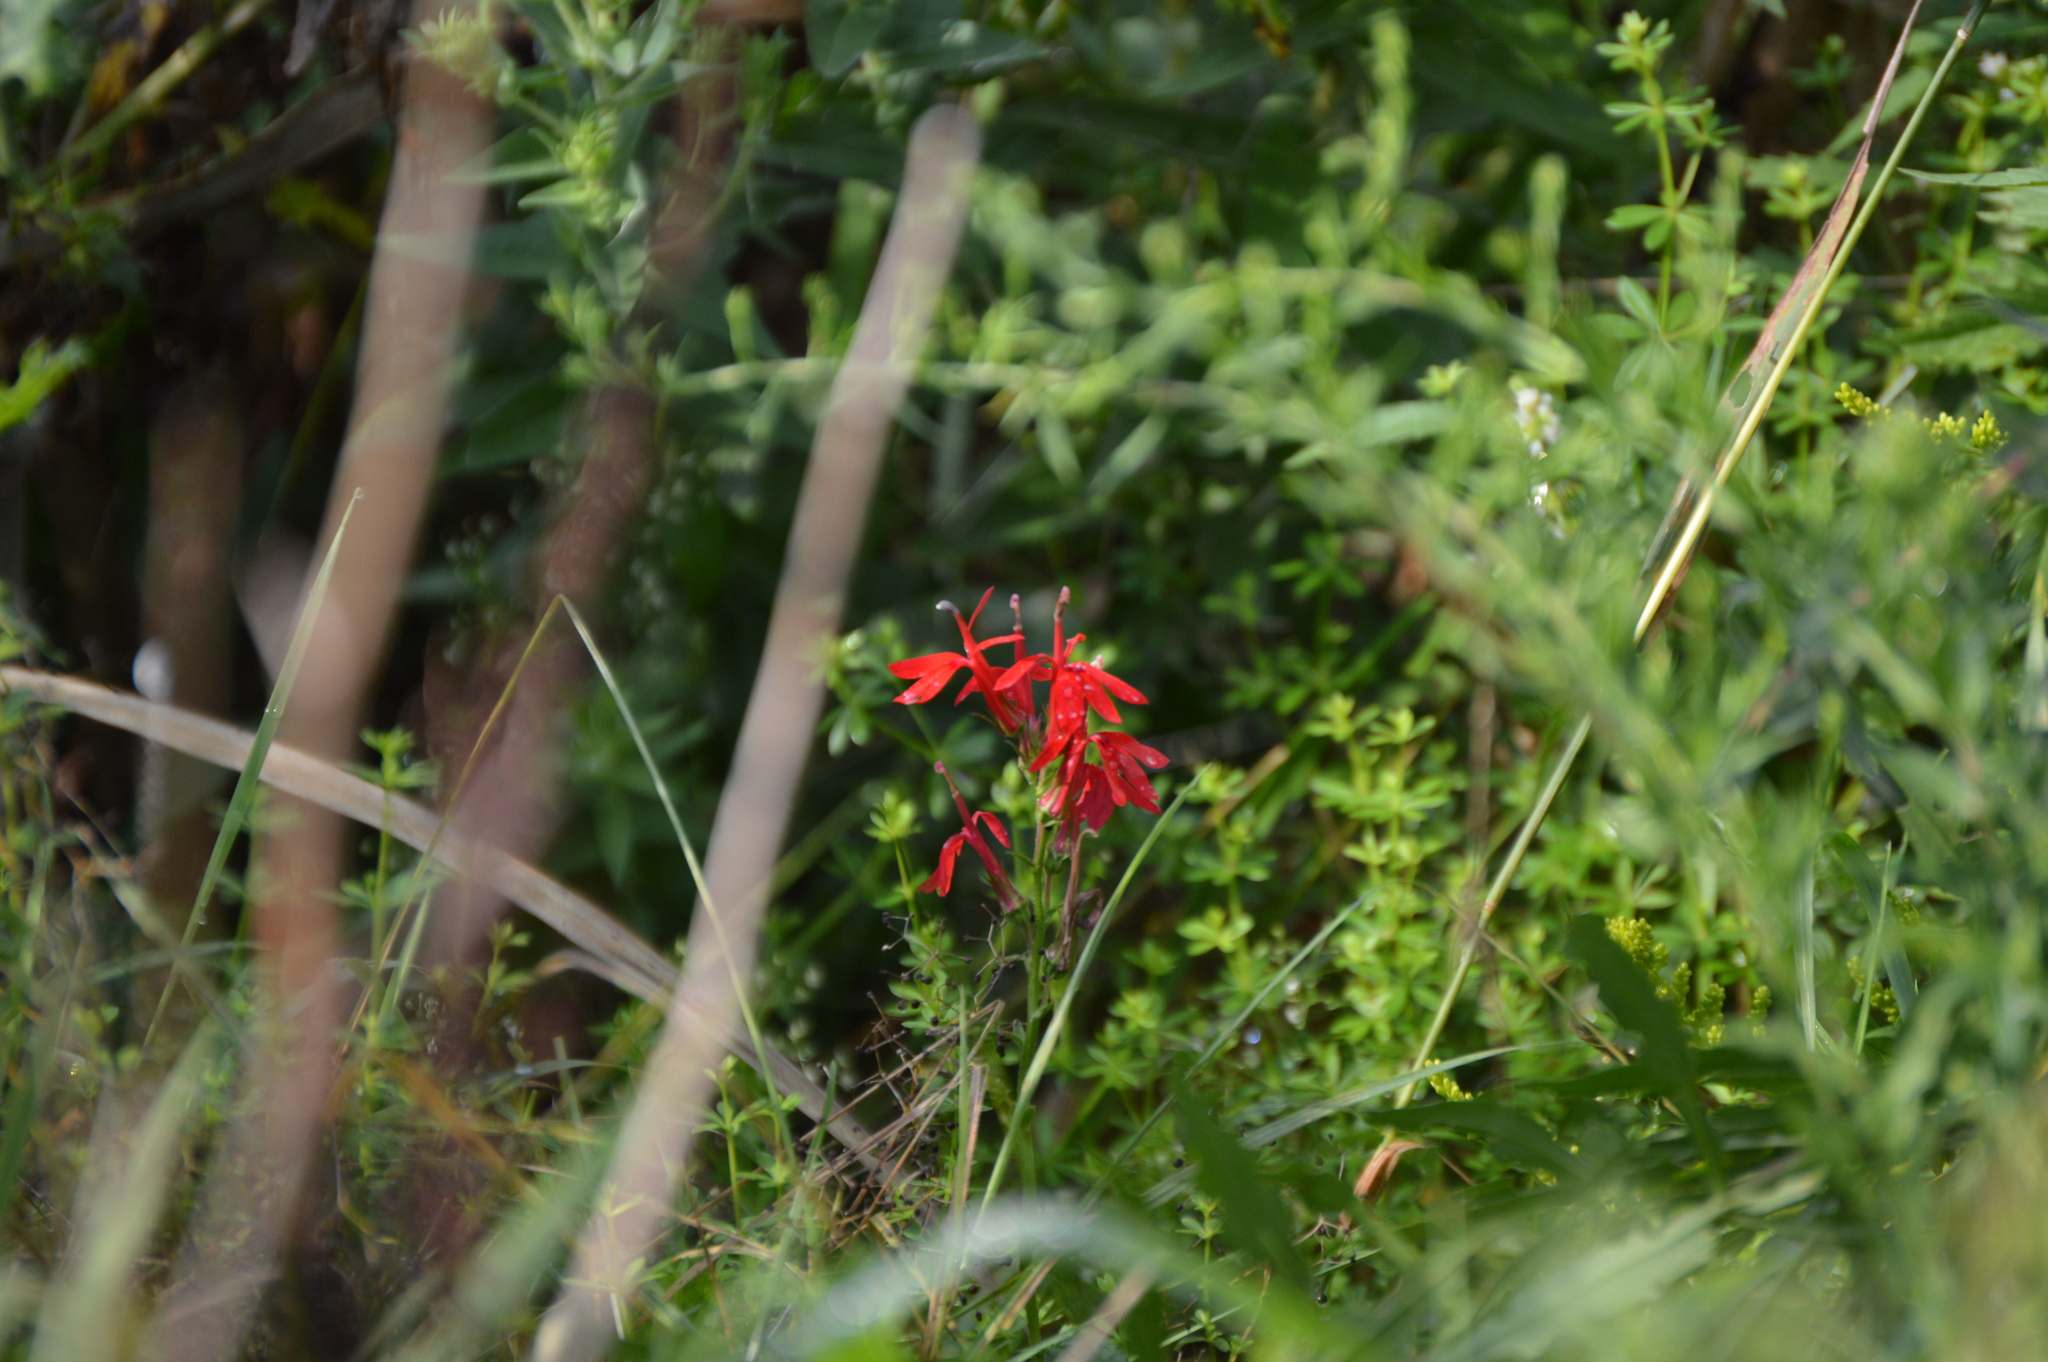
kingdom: Plantae
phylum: Tracheophyta
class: Magnoliopsida
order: Asterales
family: Campanulaceae
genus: Lobelia
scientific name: Lobelia cardinalis
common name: Cardinal flower
